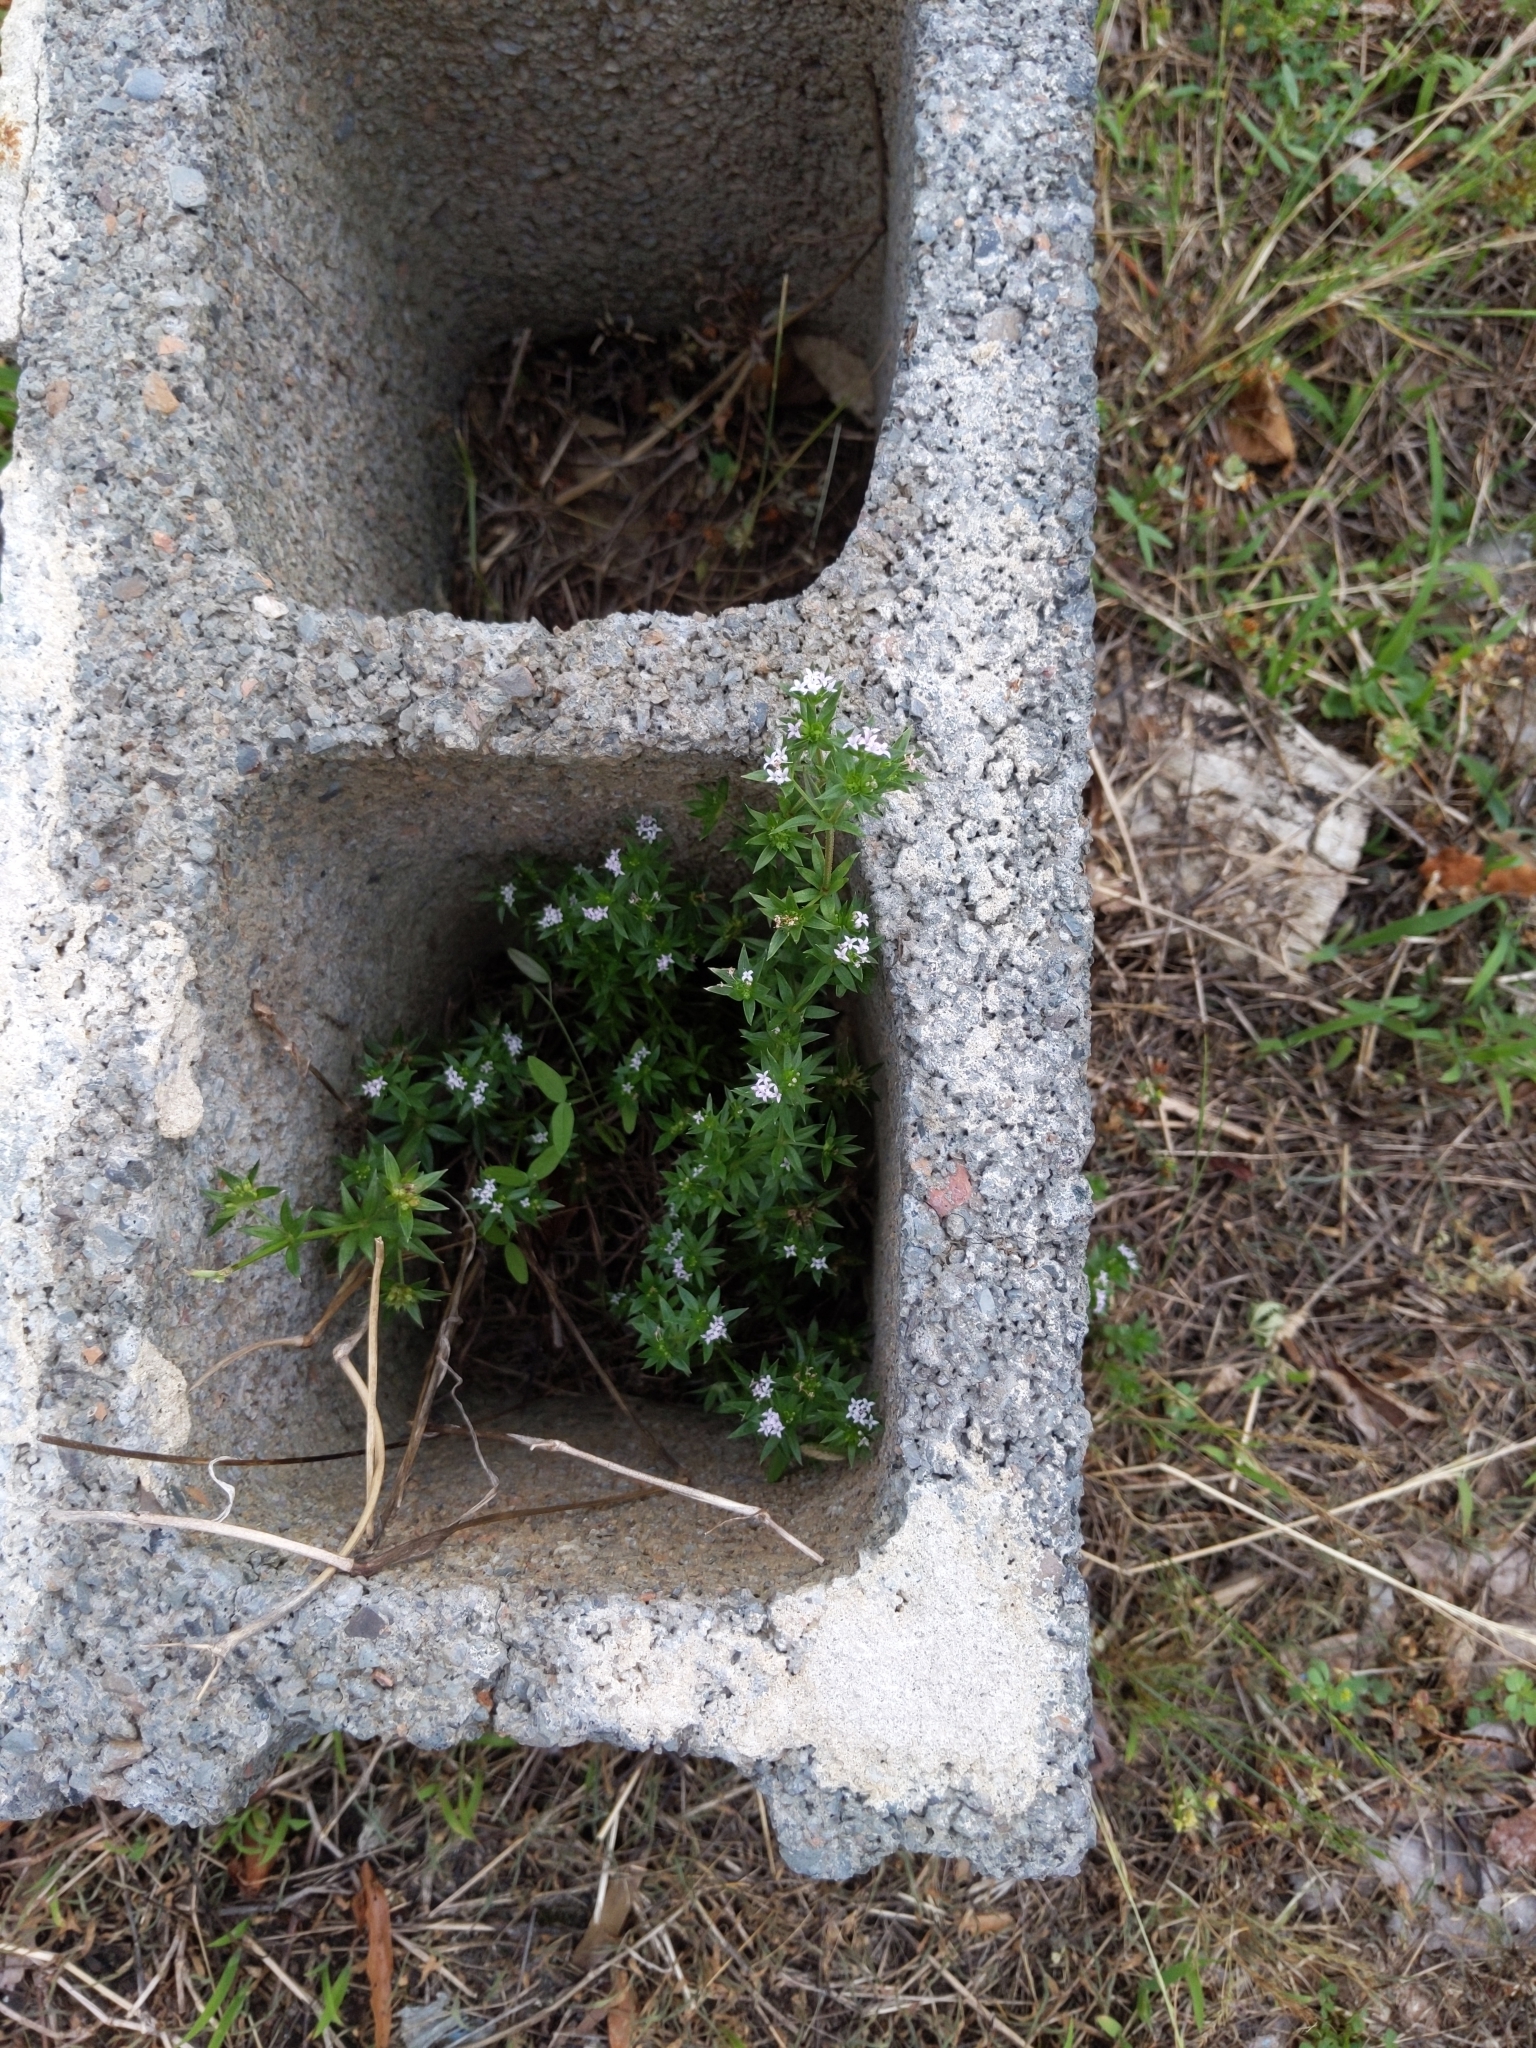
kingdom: Plantae
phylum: Tracheophyta
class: Magnoliopsida
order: Gentianales
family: Rubiaceae
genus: Sherardia
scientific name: Sherardia arvensis
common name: Field madder
